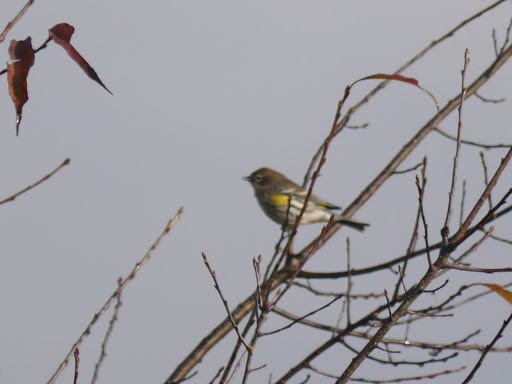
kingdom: Animalia
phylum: Chordata
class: Aves
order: Passeriformes
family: Parulidae
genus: Setophaga
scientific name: Setophaga coronata
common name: Myrtle warbler
